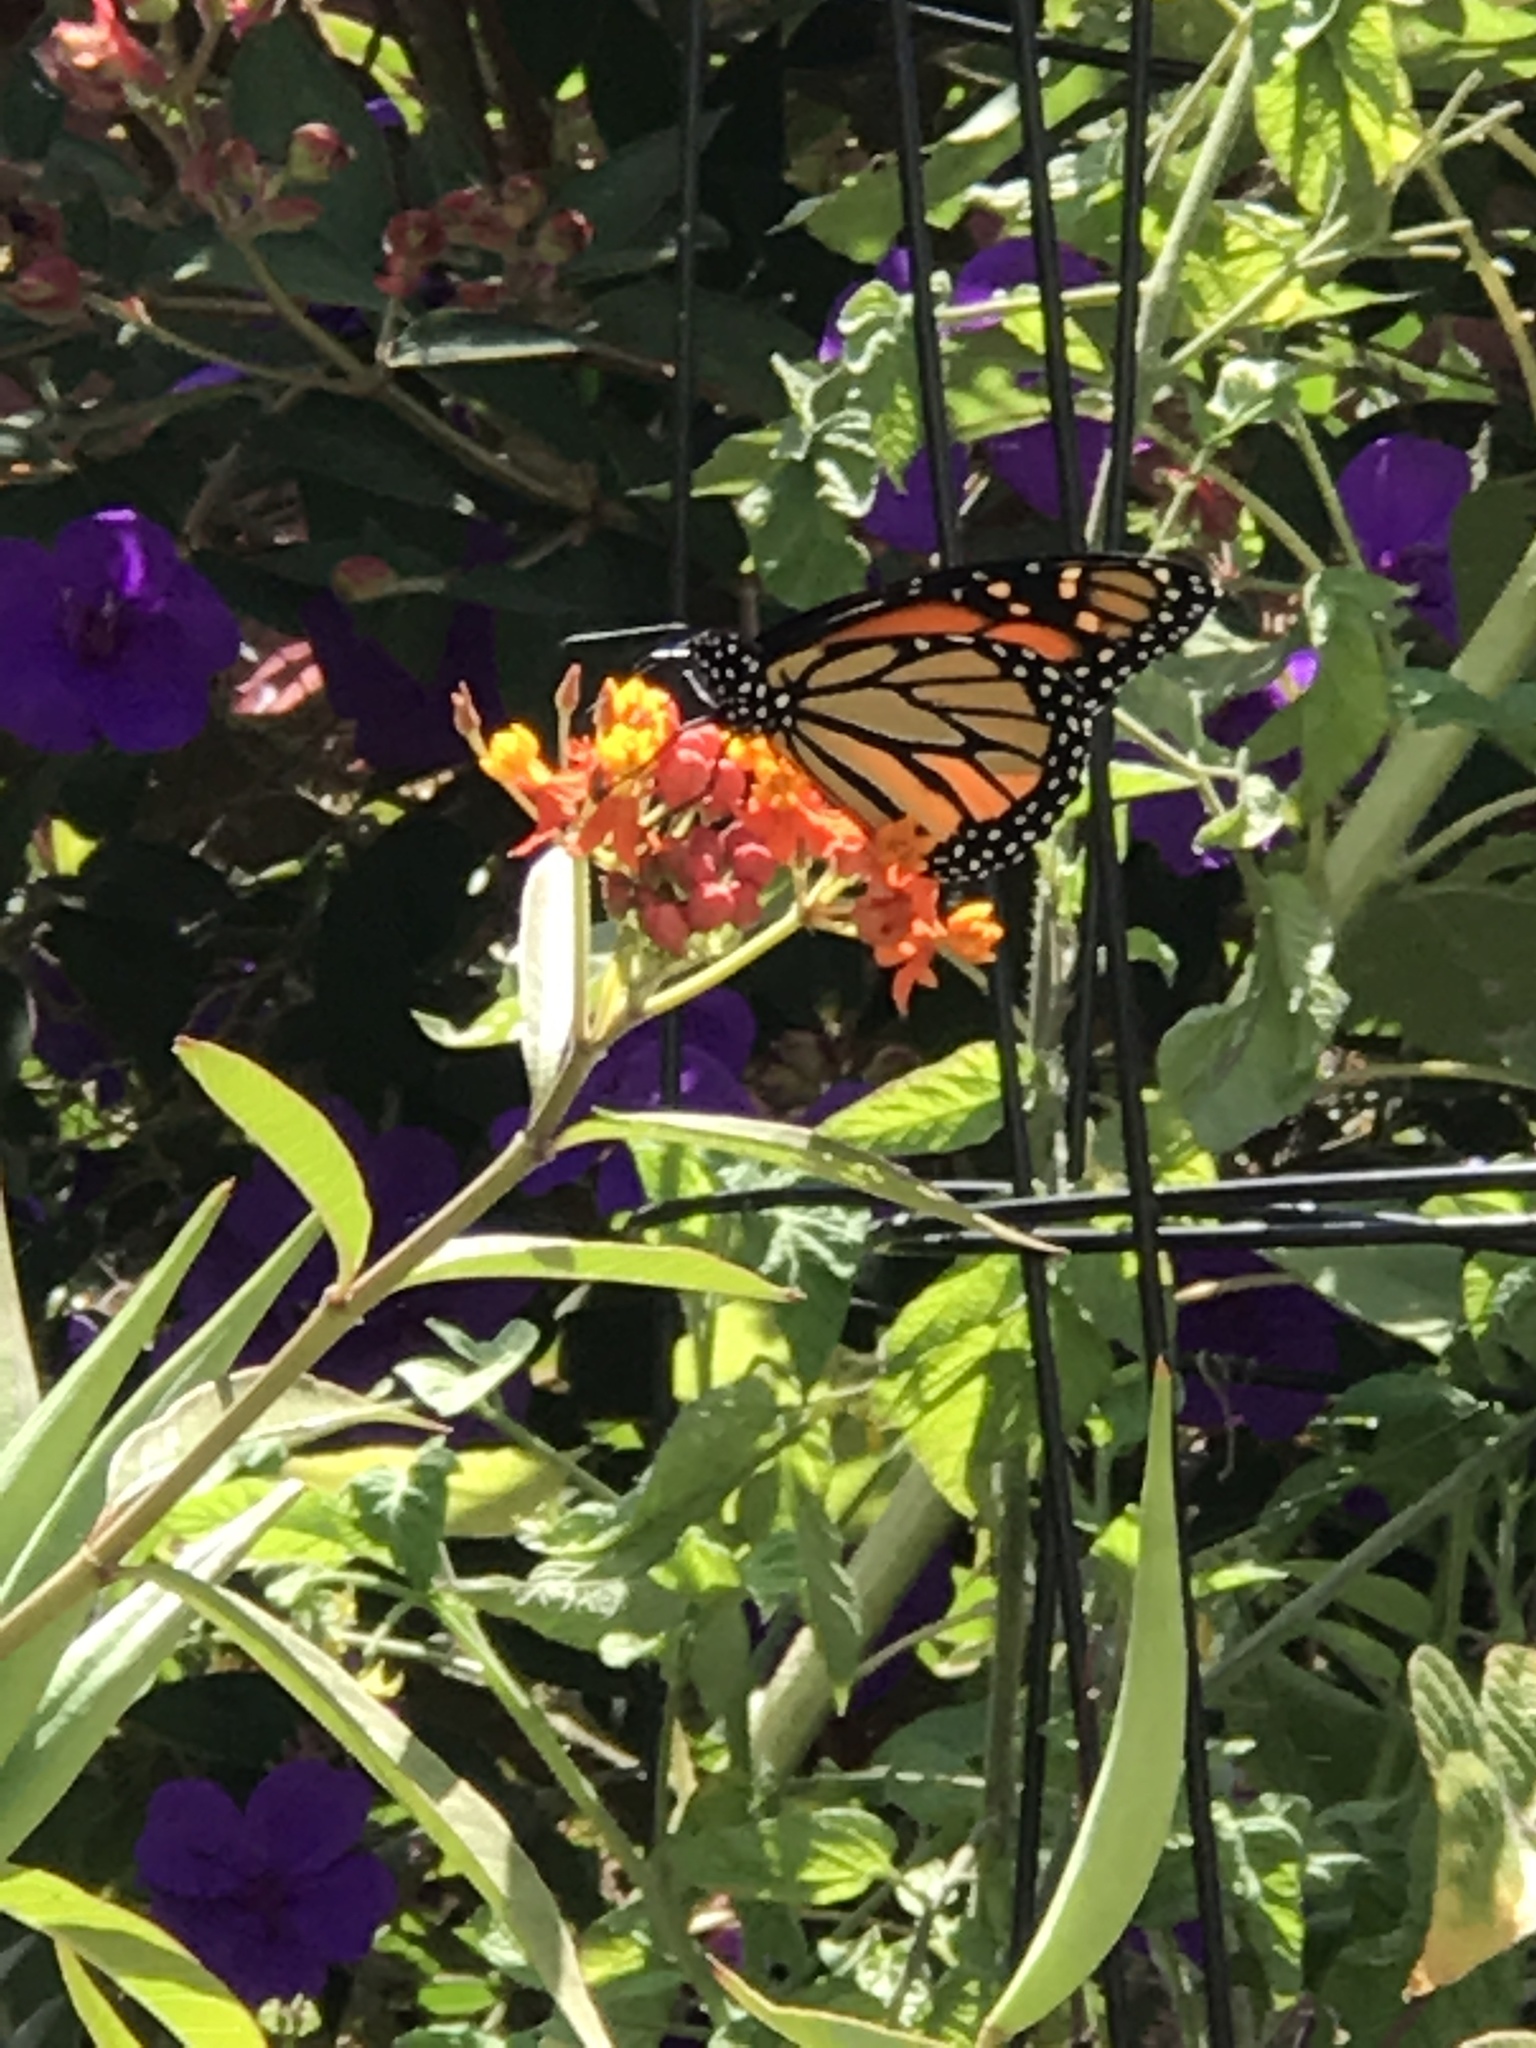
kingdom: Animalia
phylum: Arthropoda
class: Insecta
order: Lepidoptera
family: Nymphalidae
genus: Danaus
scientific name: Danaus plexippus
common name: Monarch
